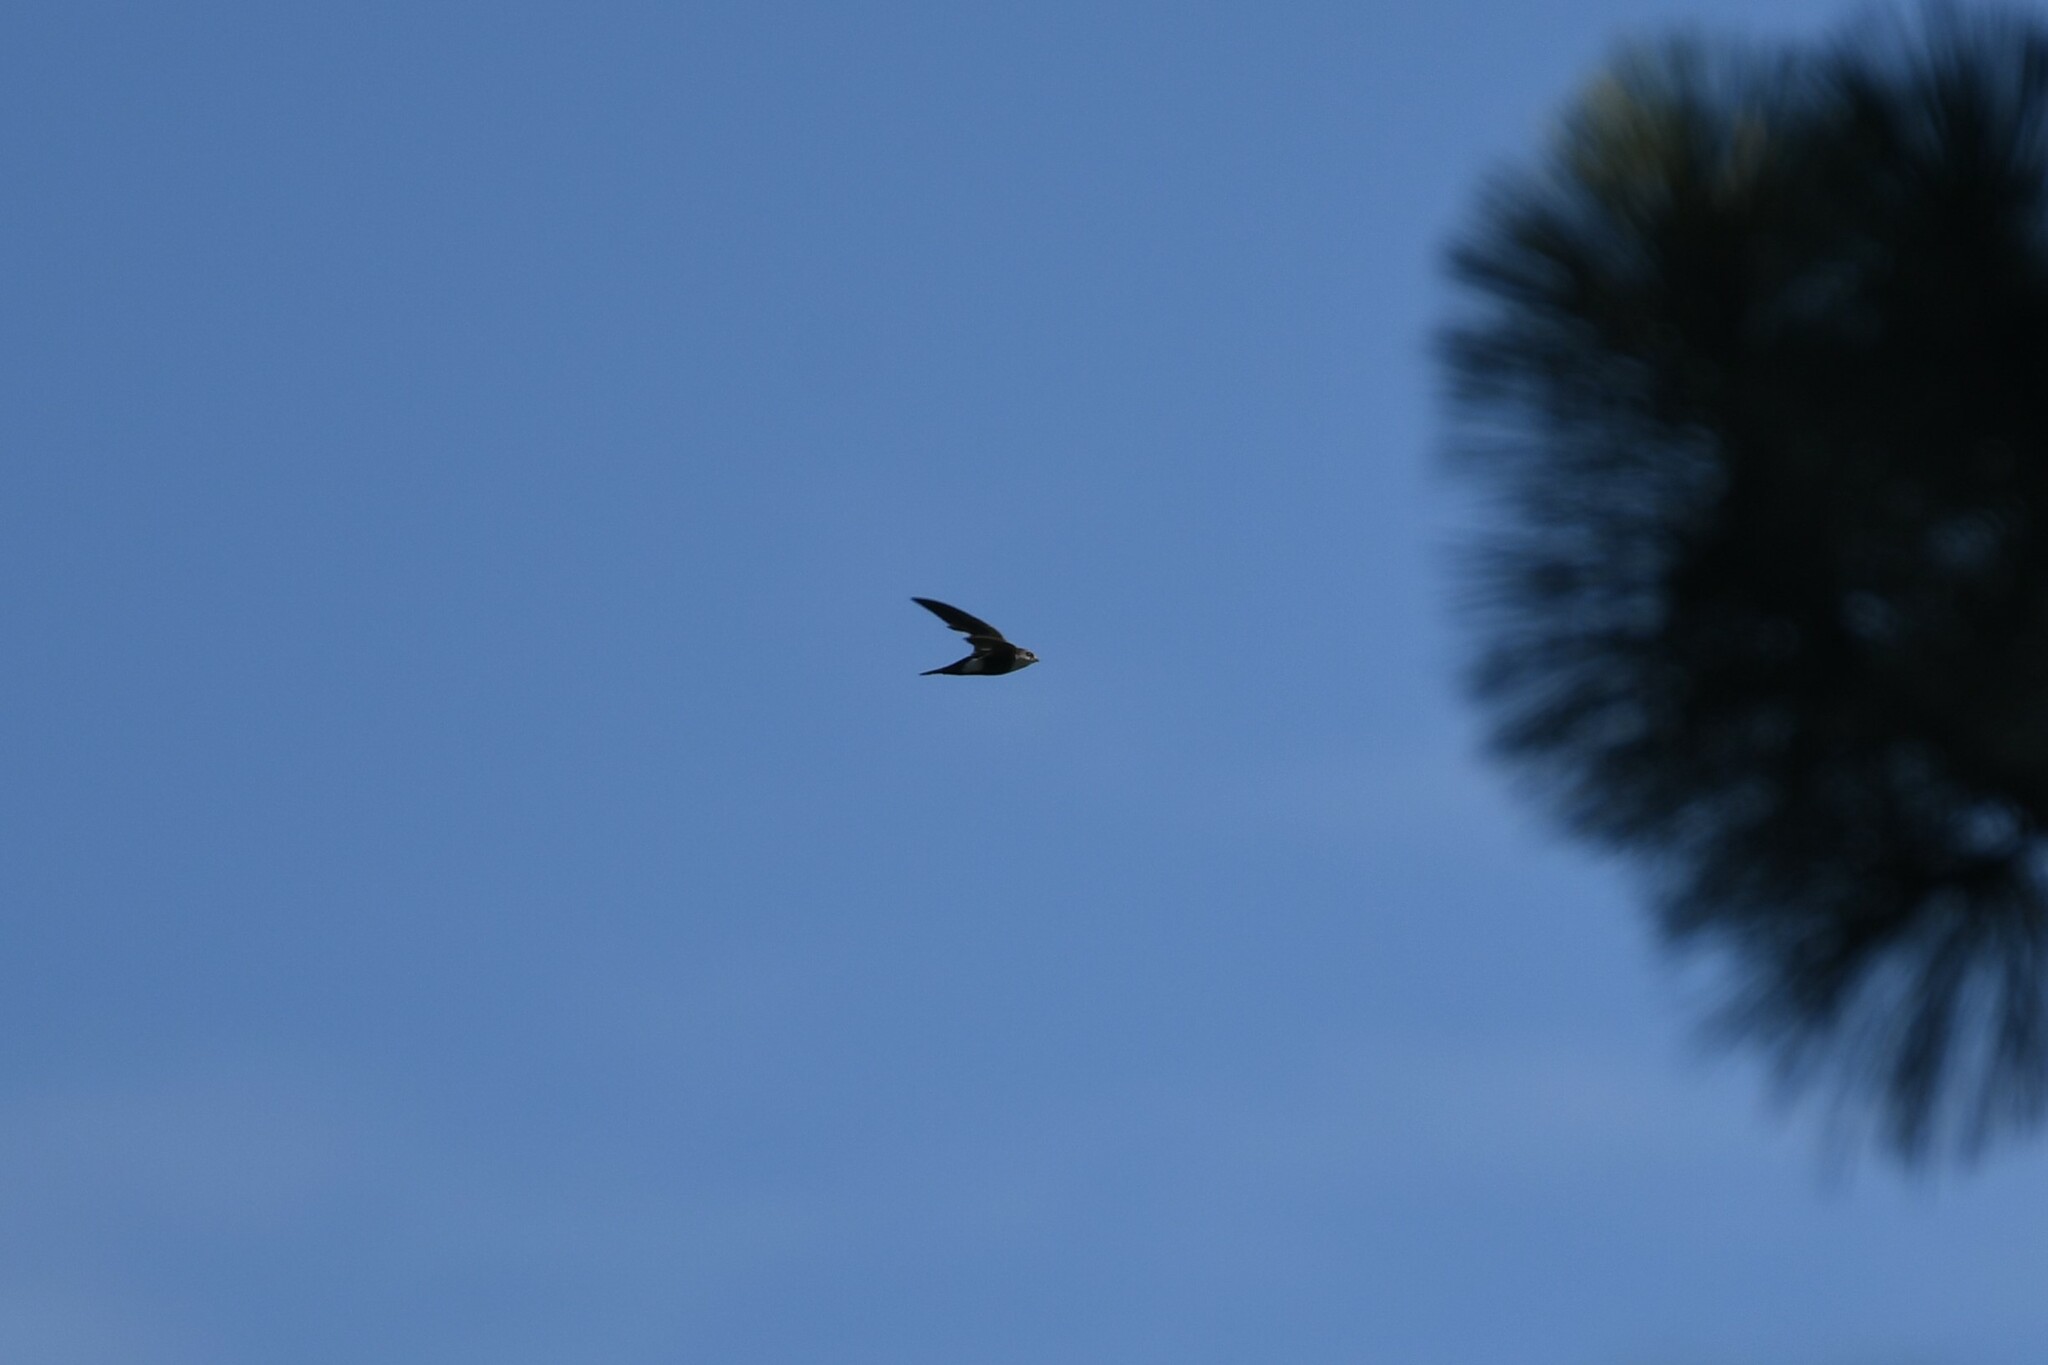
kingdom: Animalia
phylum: Chordata
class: Aves
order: Apodiformes
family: Apodidae
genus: Aeronautes
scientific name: Aeronautes saxatalis
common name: White-throated swift
